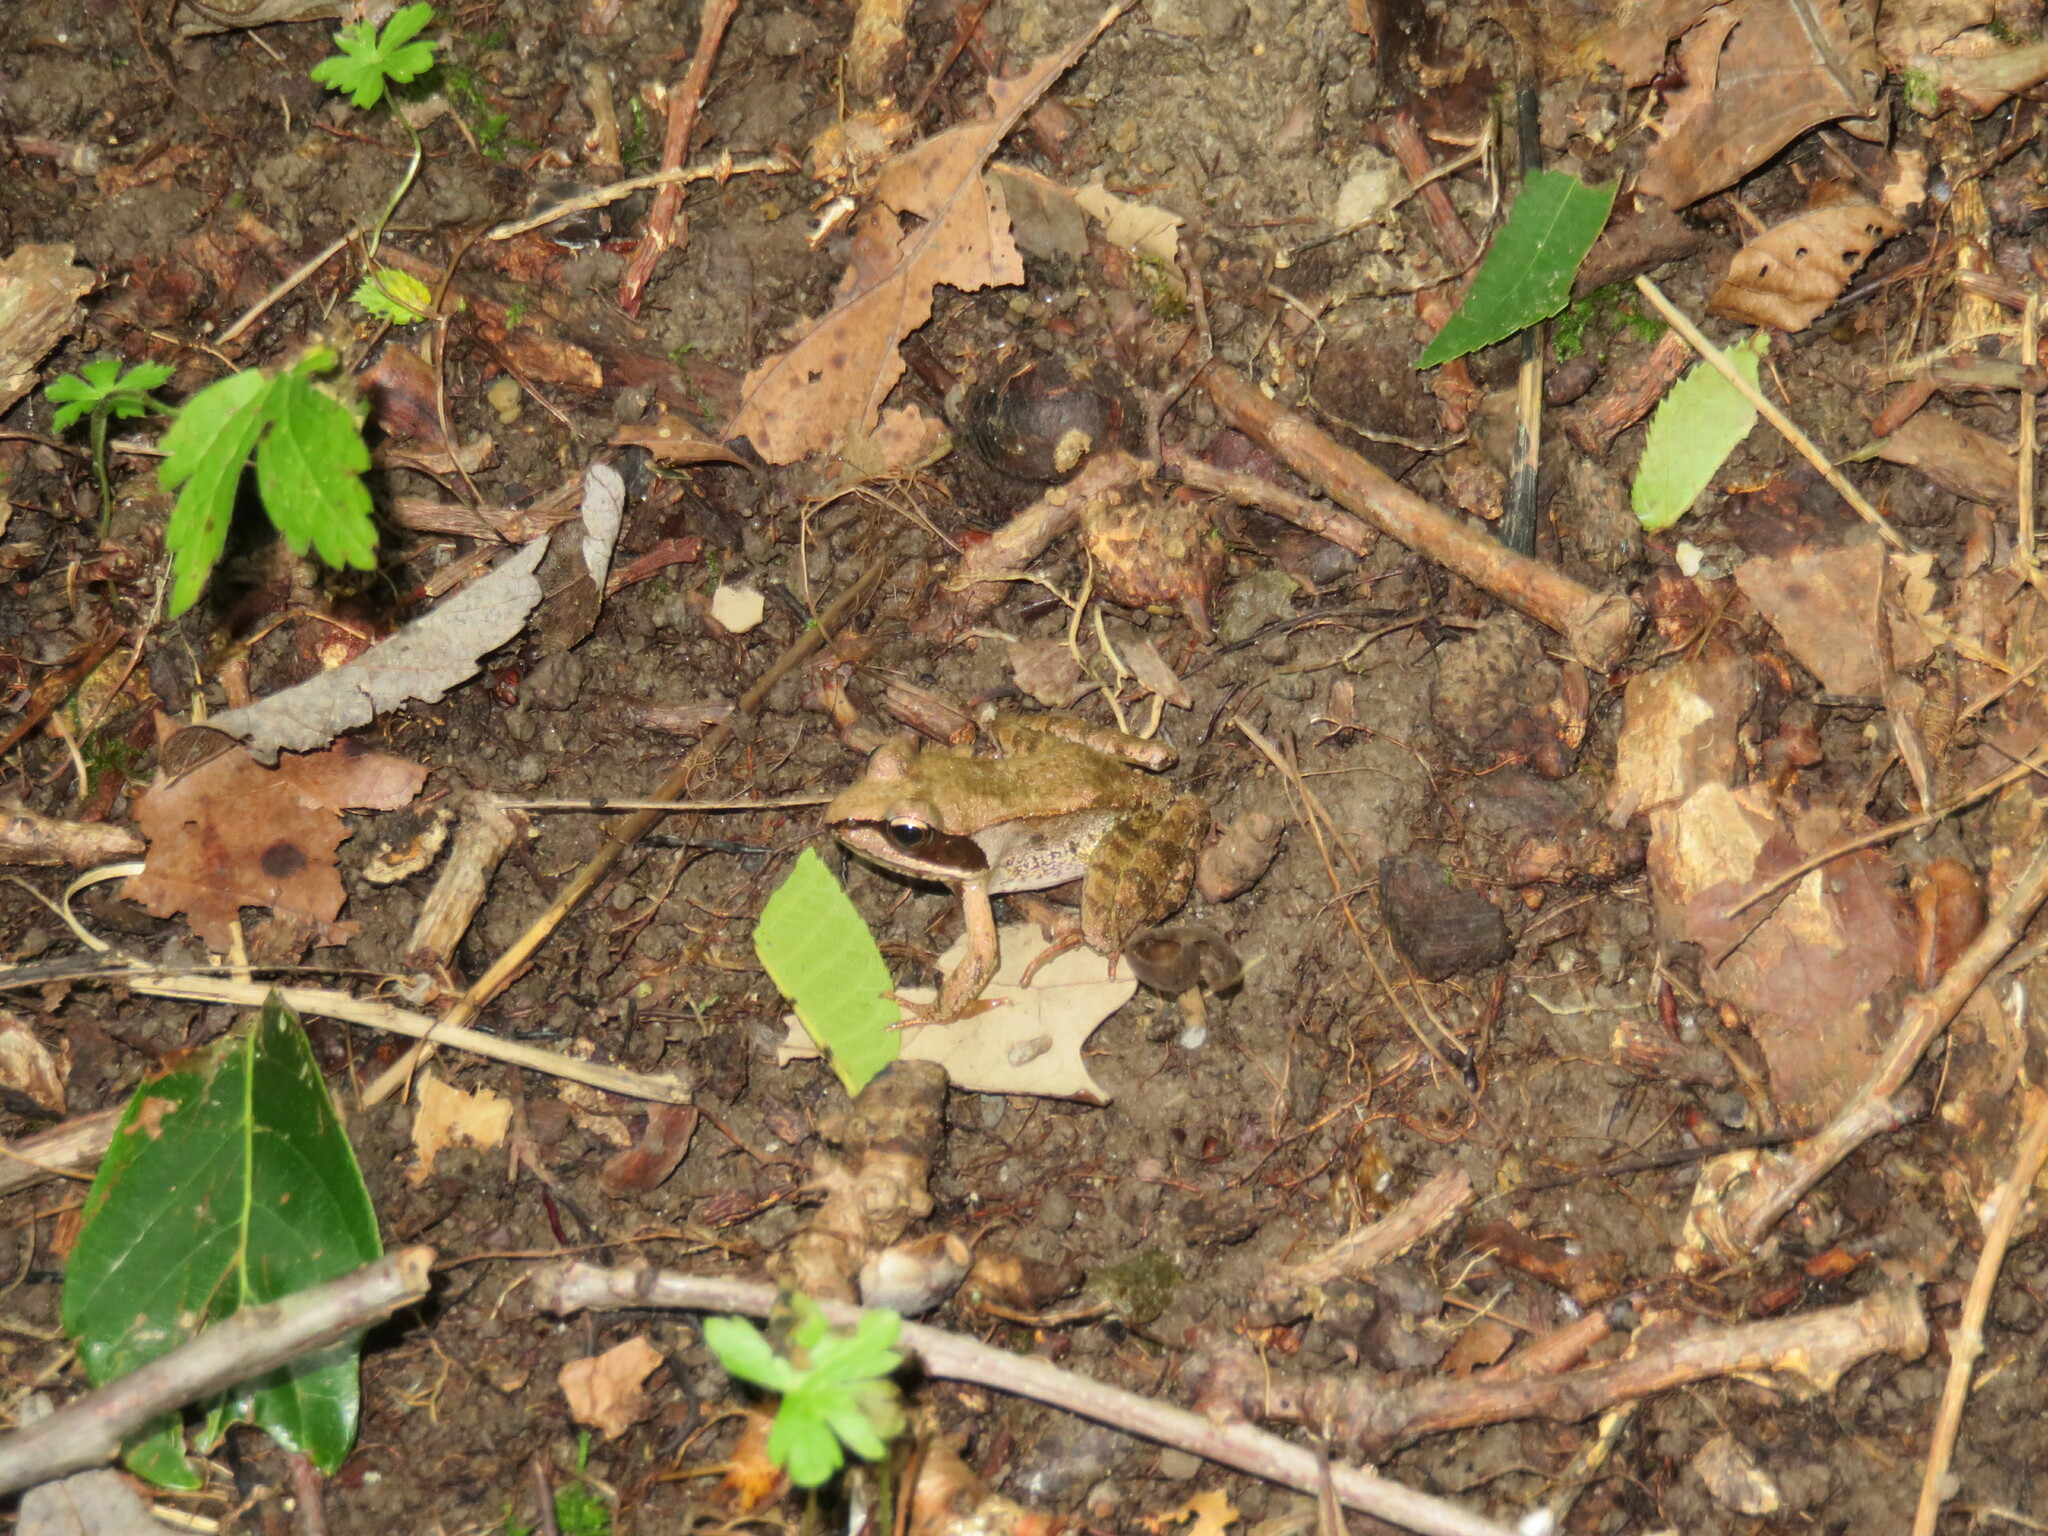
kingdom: Animalia
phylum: Chordata
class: Amphibia
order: Anura
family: Ranidae
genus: Lithobates
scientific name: Lithobates sylvaticus
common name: Wood frog
